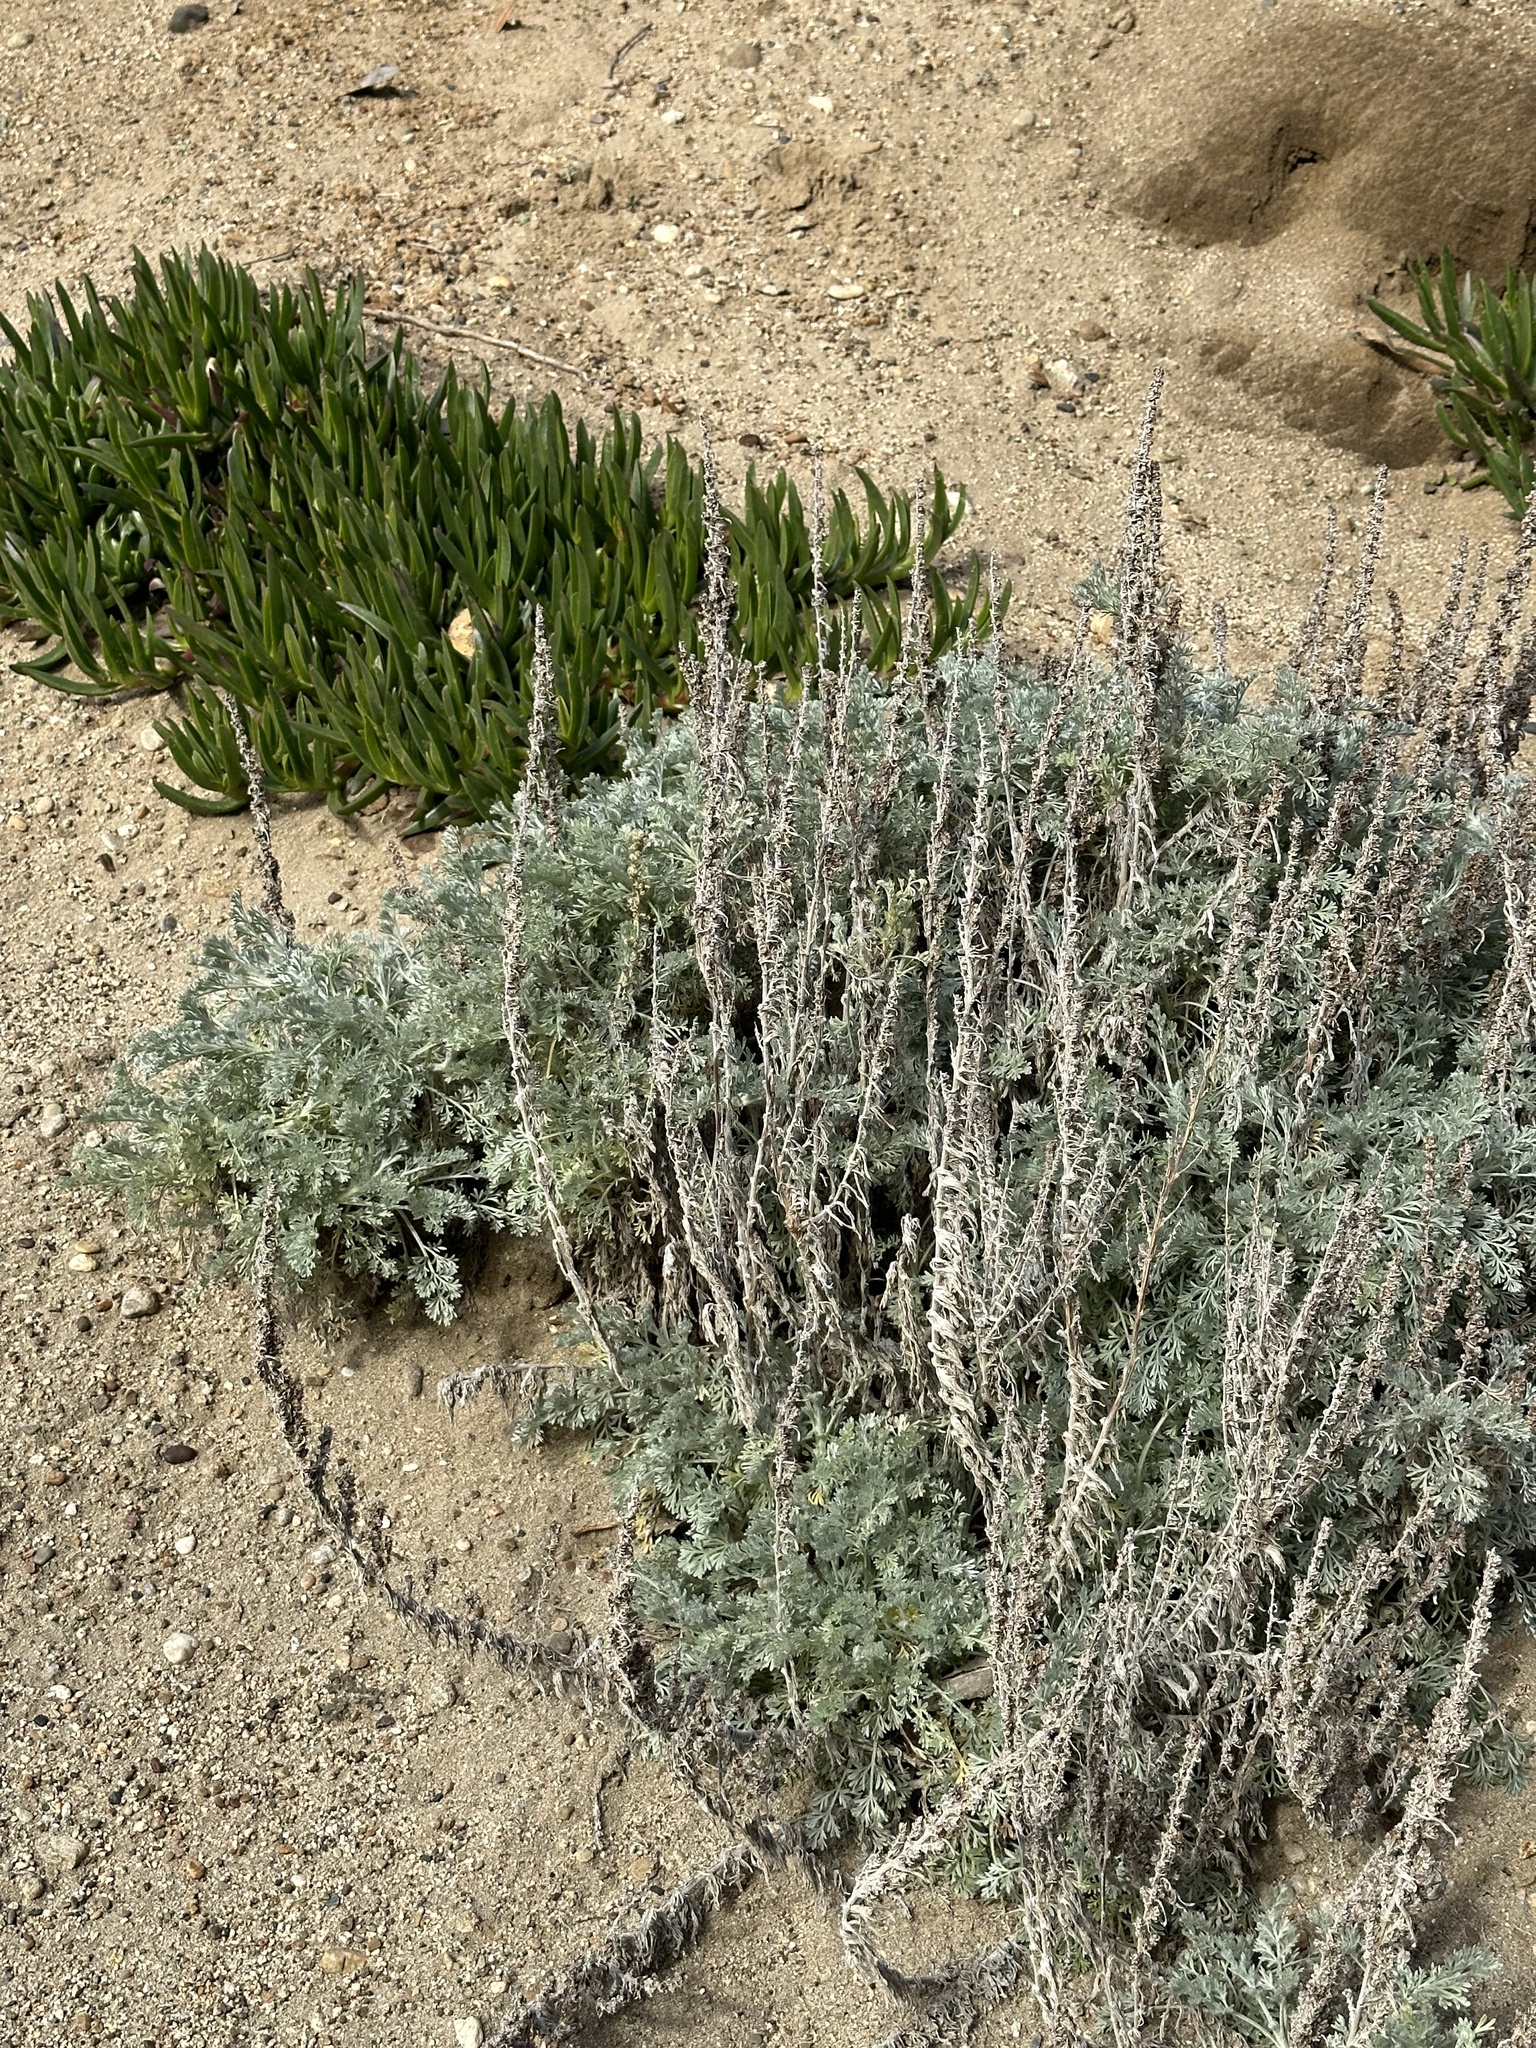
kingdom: Plantae
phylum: Tracheophyta
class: Magnoliopsida
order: Asterales
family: Asteraceae
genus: Artemisia
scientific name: Artemisia pycnocephala
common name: Coastal sagewort
